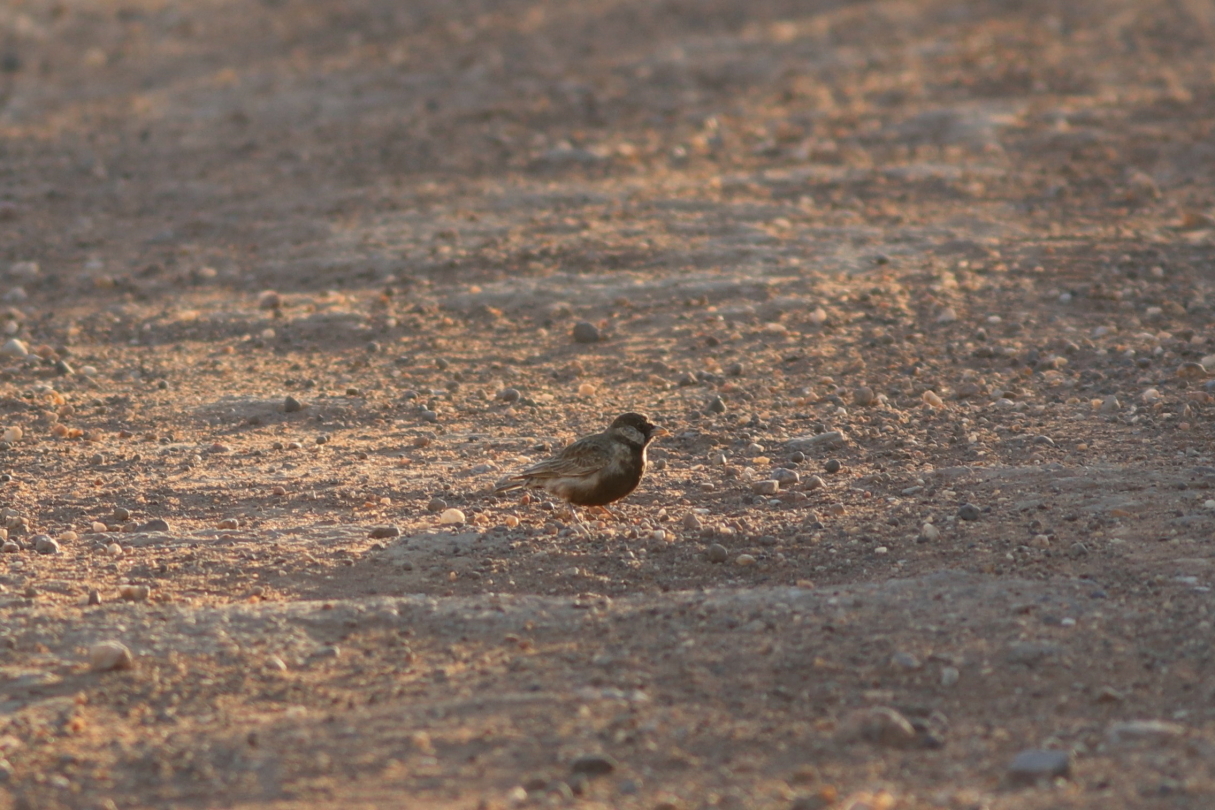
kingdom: Animalia
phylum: Chordata
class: Aves
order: Passeriformes
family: Alaudidae
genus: Eremopterix
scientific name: Eremopterix verticalis
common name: Grey-backed sparrow-lark
